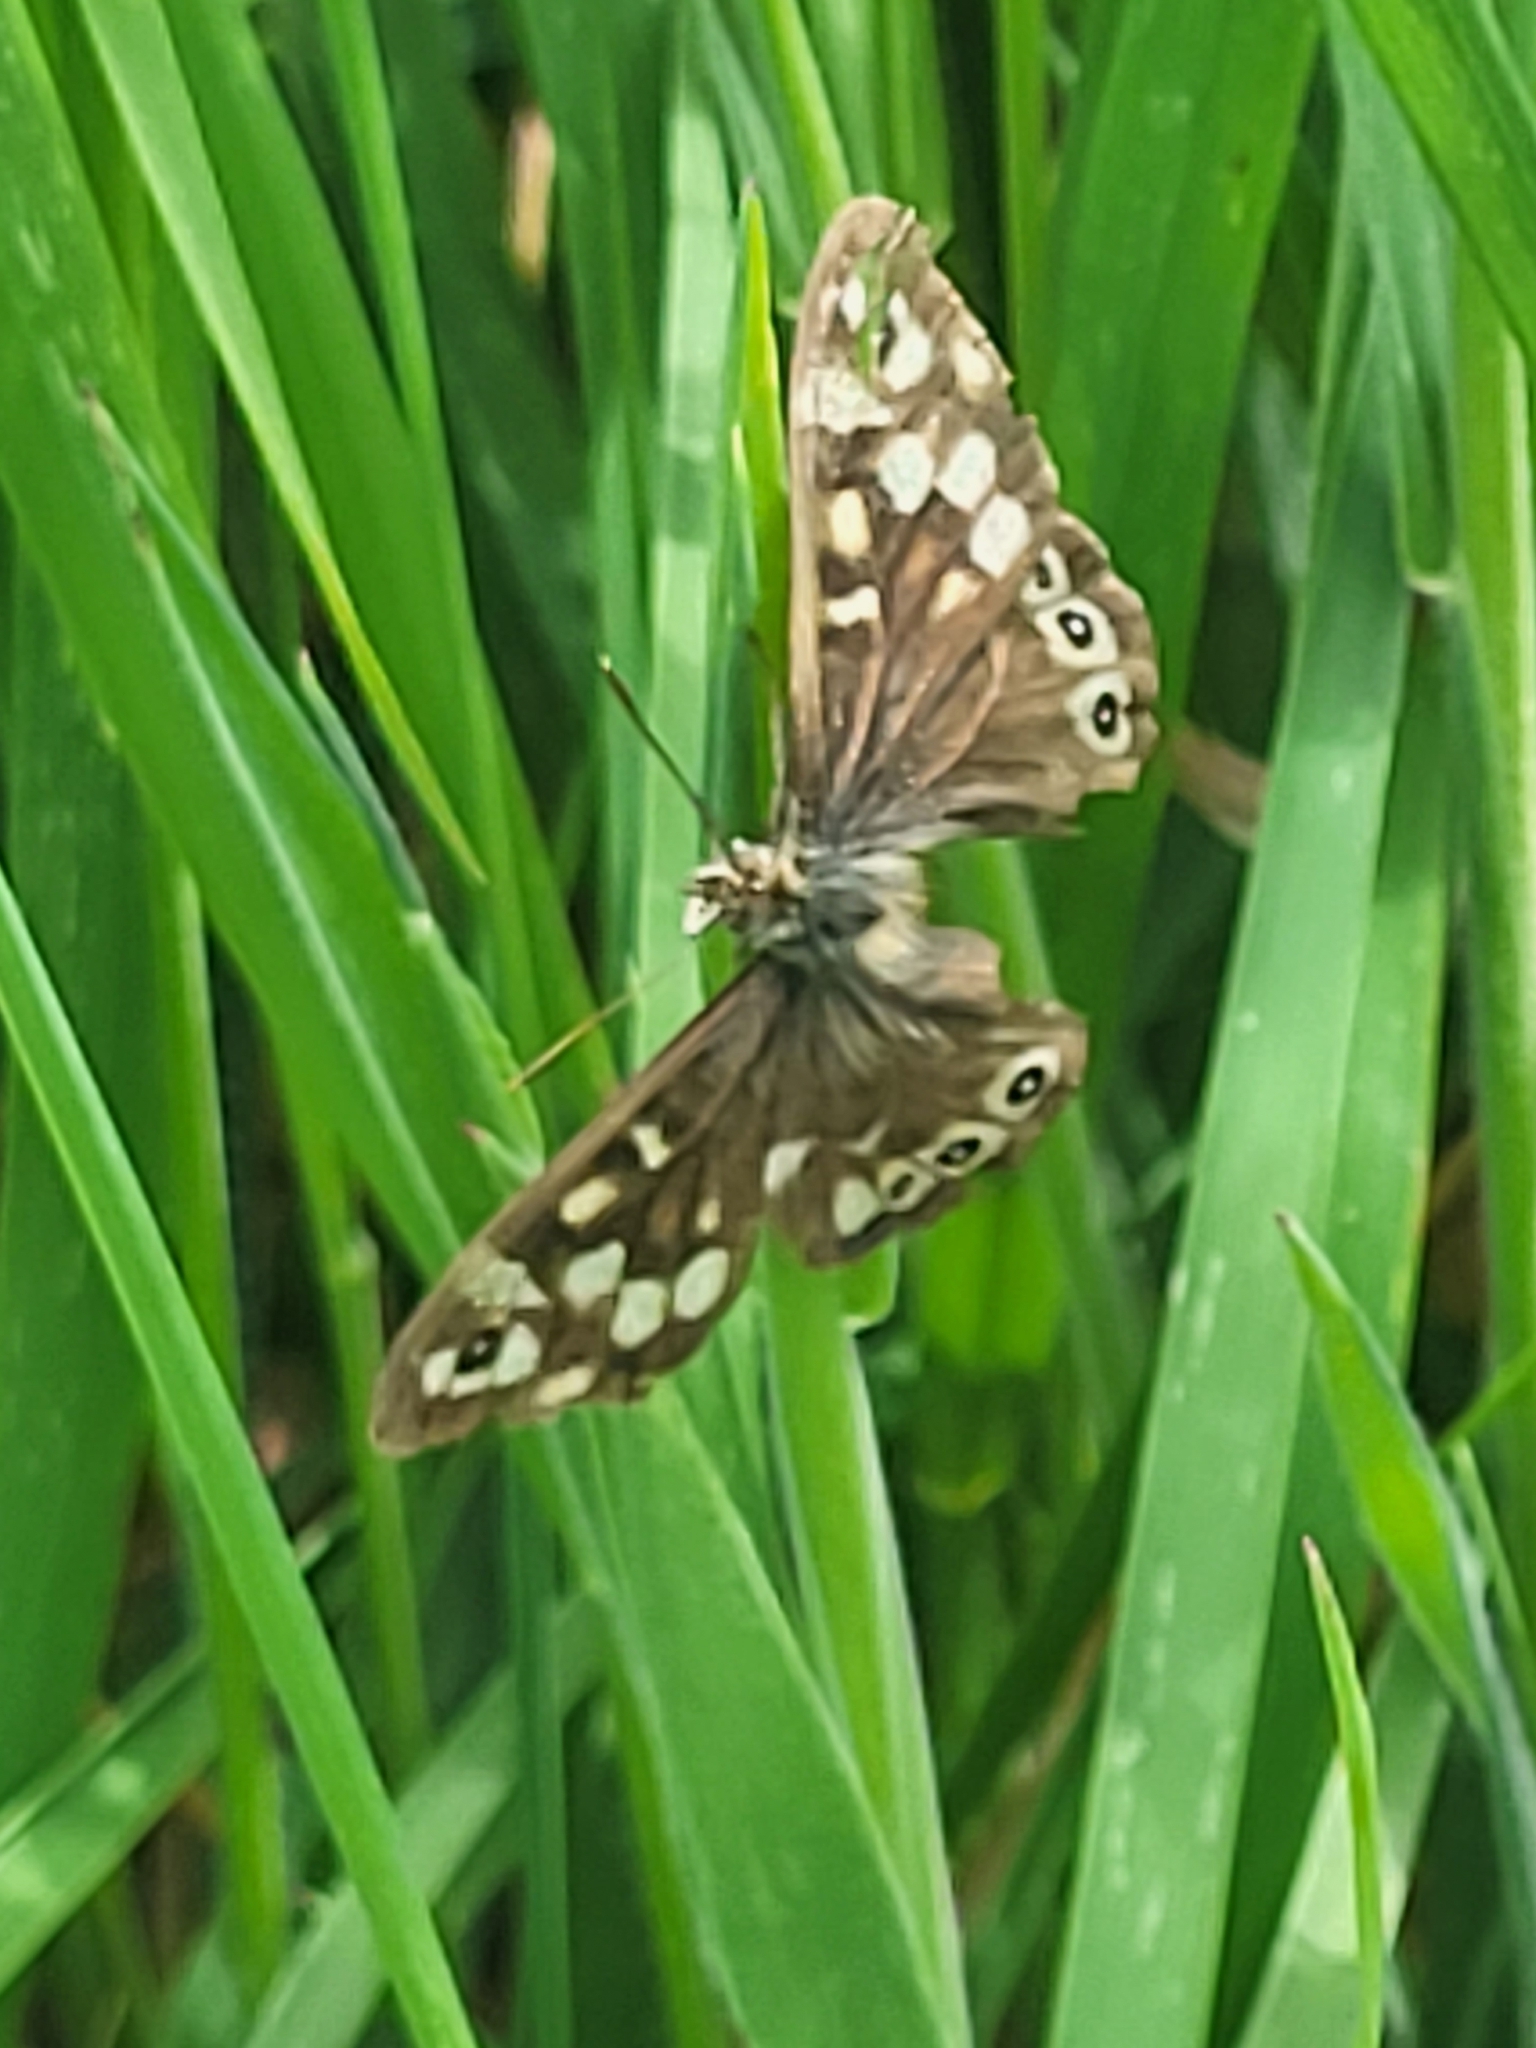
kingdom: Animalia
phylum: Arthropoda
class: Insecta
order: Lepidoptera
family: Nymphalidae
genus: Pararge
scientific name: Pararge aegeria
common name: Speckled wood
